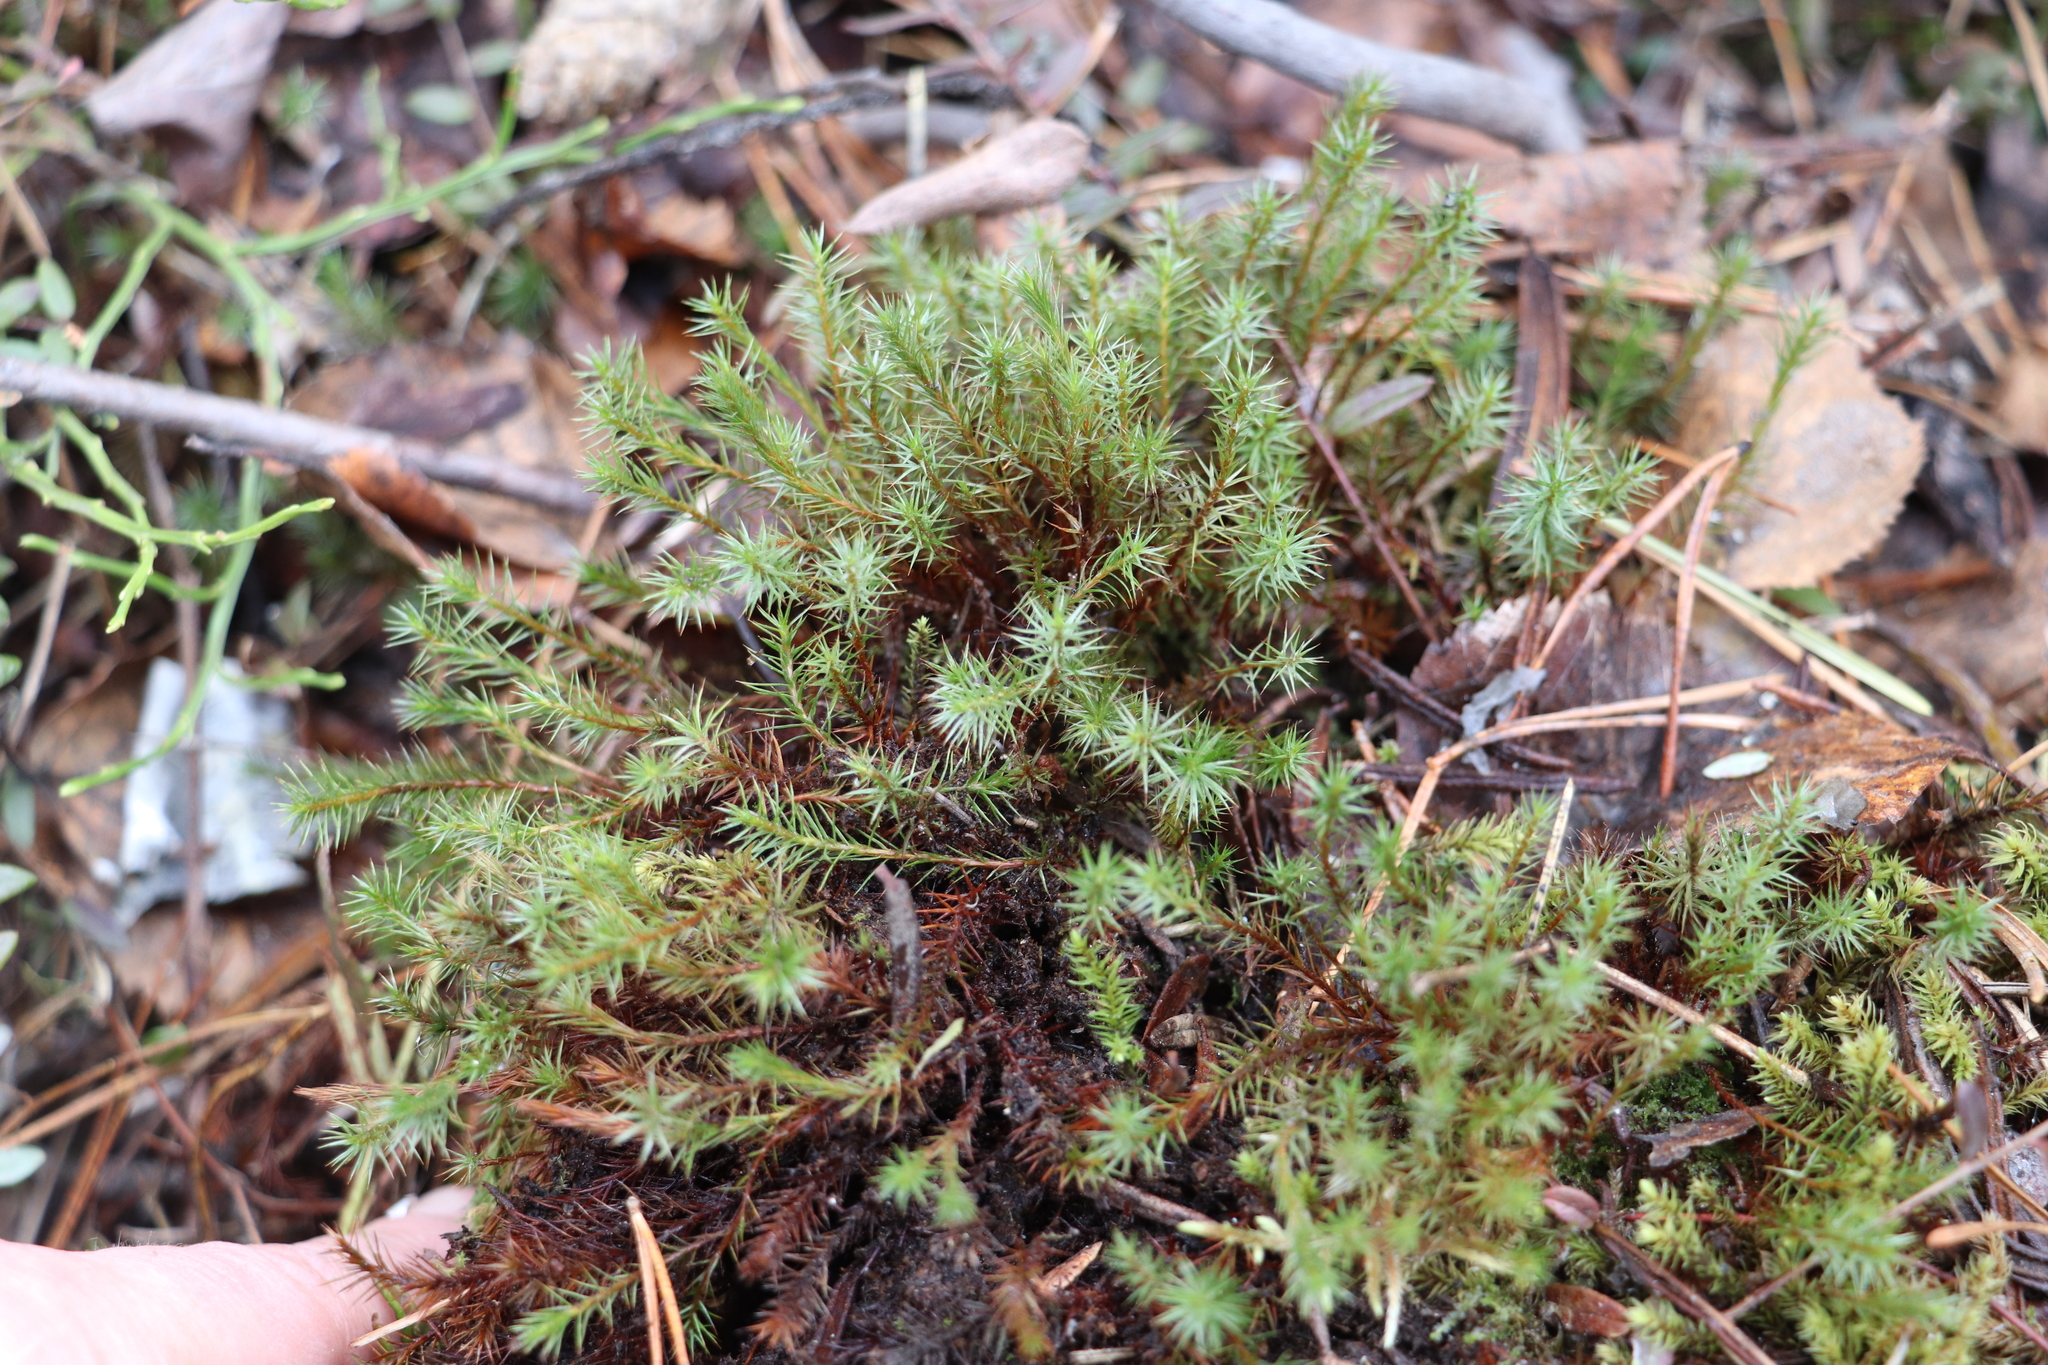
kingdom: Plantae
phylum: Bryophyta
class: Polytrichopsida
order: Polytrichales
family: Polytrichaceae
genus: Polytrichum
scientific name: Polytrichum juniperinum
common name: Juniper haircap moss
